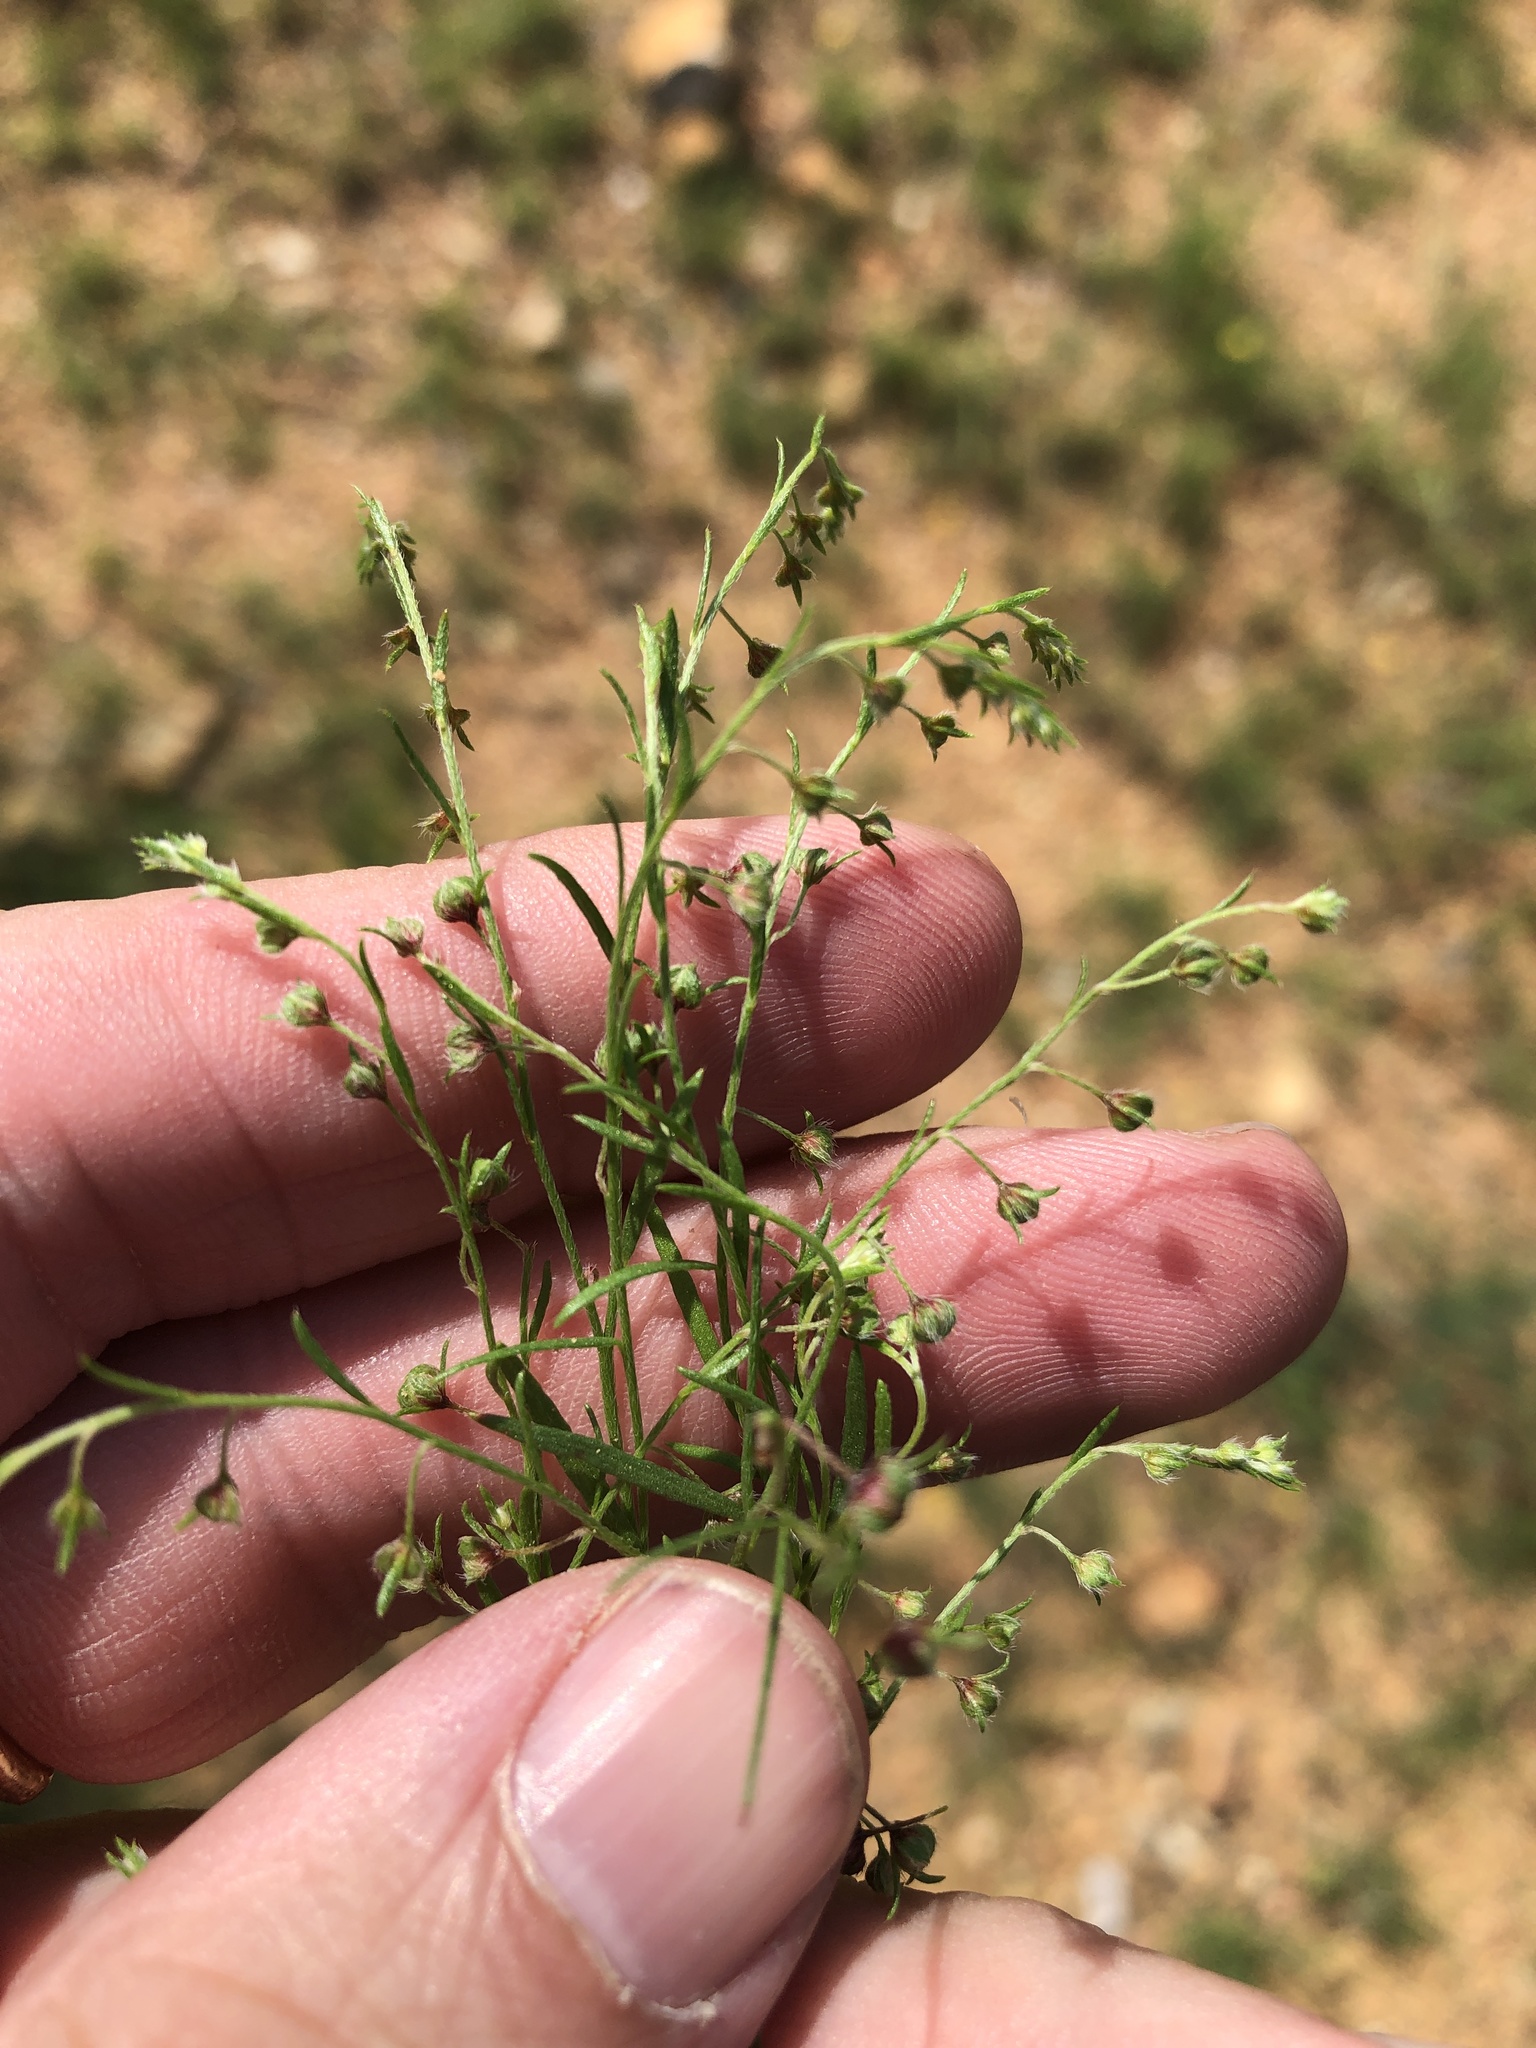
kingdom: Plantae
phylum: Tracheophyta
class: Magnoliopsida
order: Malvales
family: Cistaceae
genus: Lechea
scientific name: Lechea san-sabeana
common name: San saba pinweed
